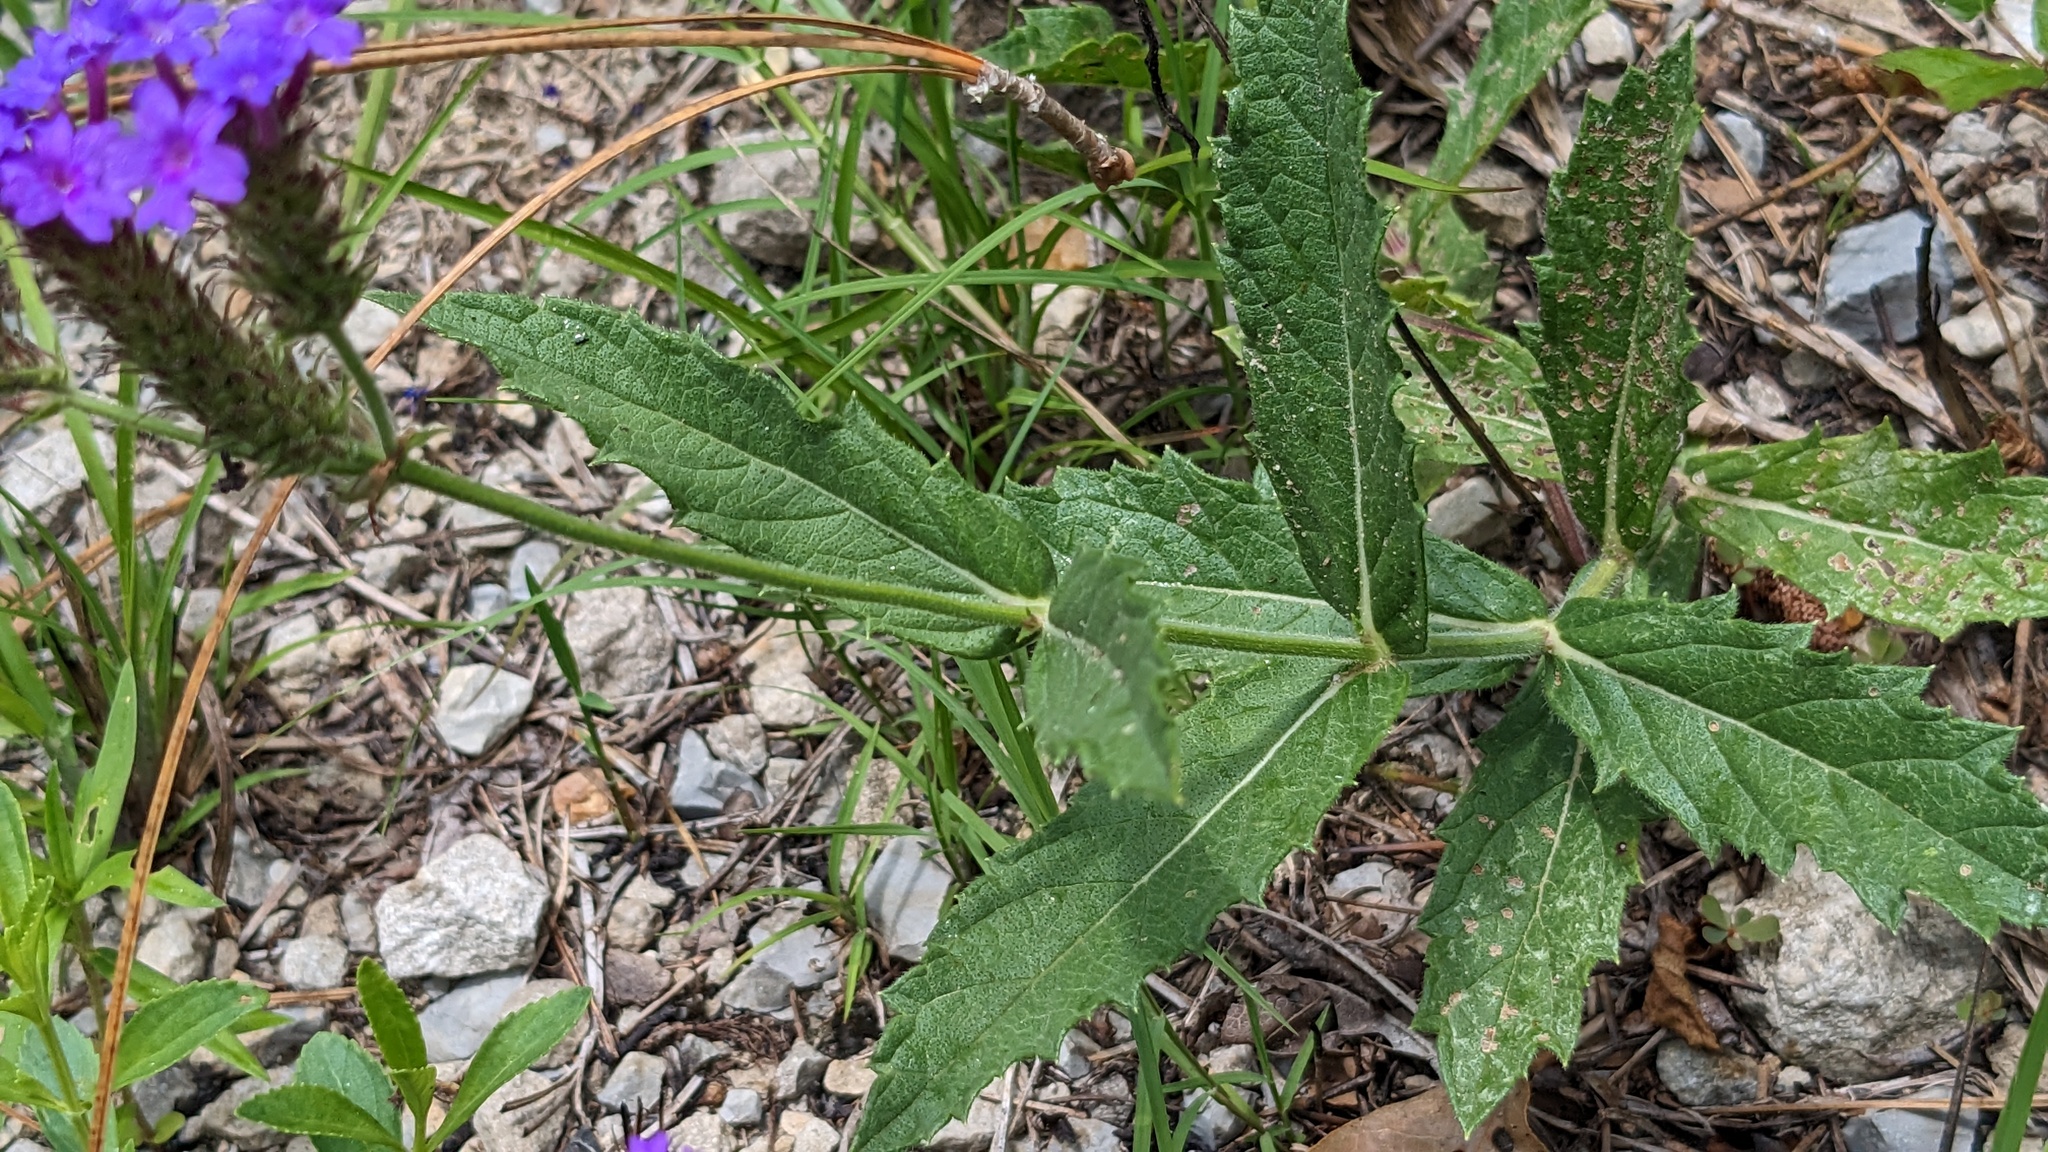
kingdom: Plantae
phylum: Tracheophyta
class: Magnoliopsida
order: Lamiales
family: Verbenaceae
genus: Verbena
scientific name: Verbena rigida
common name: Slender vervain
